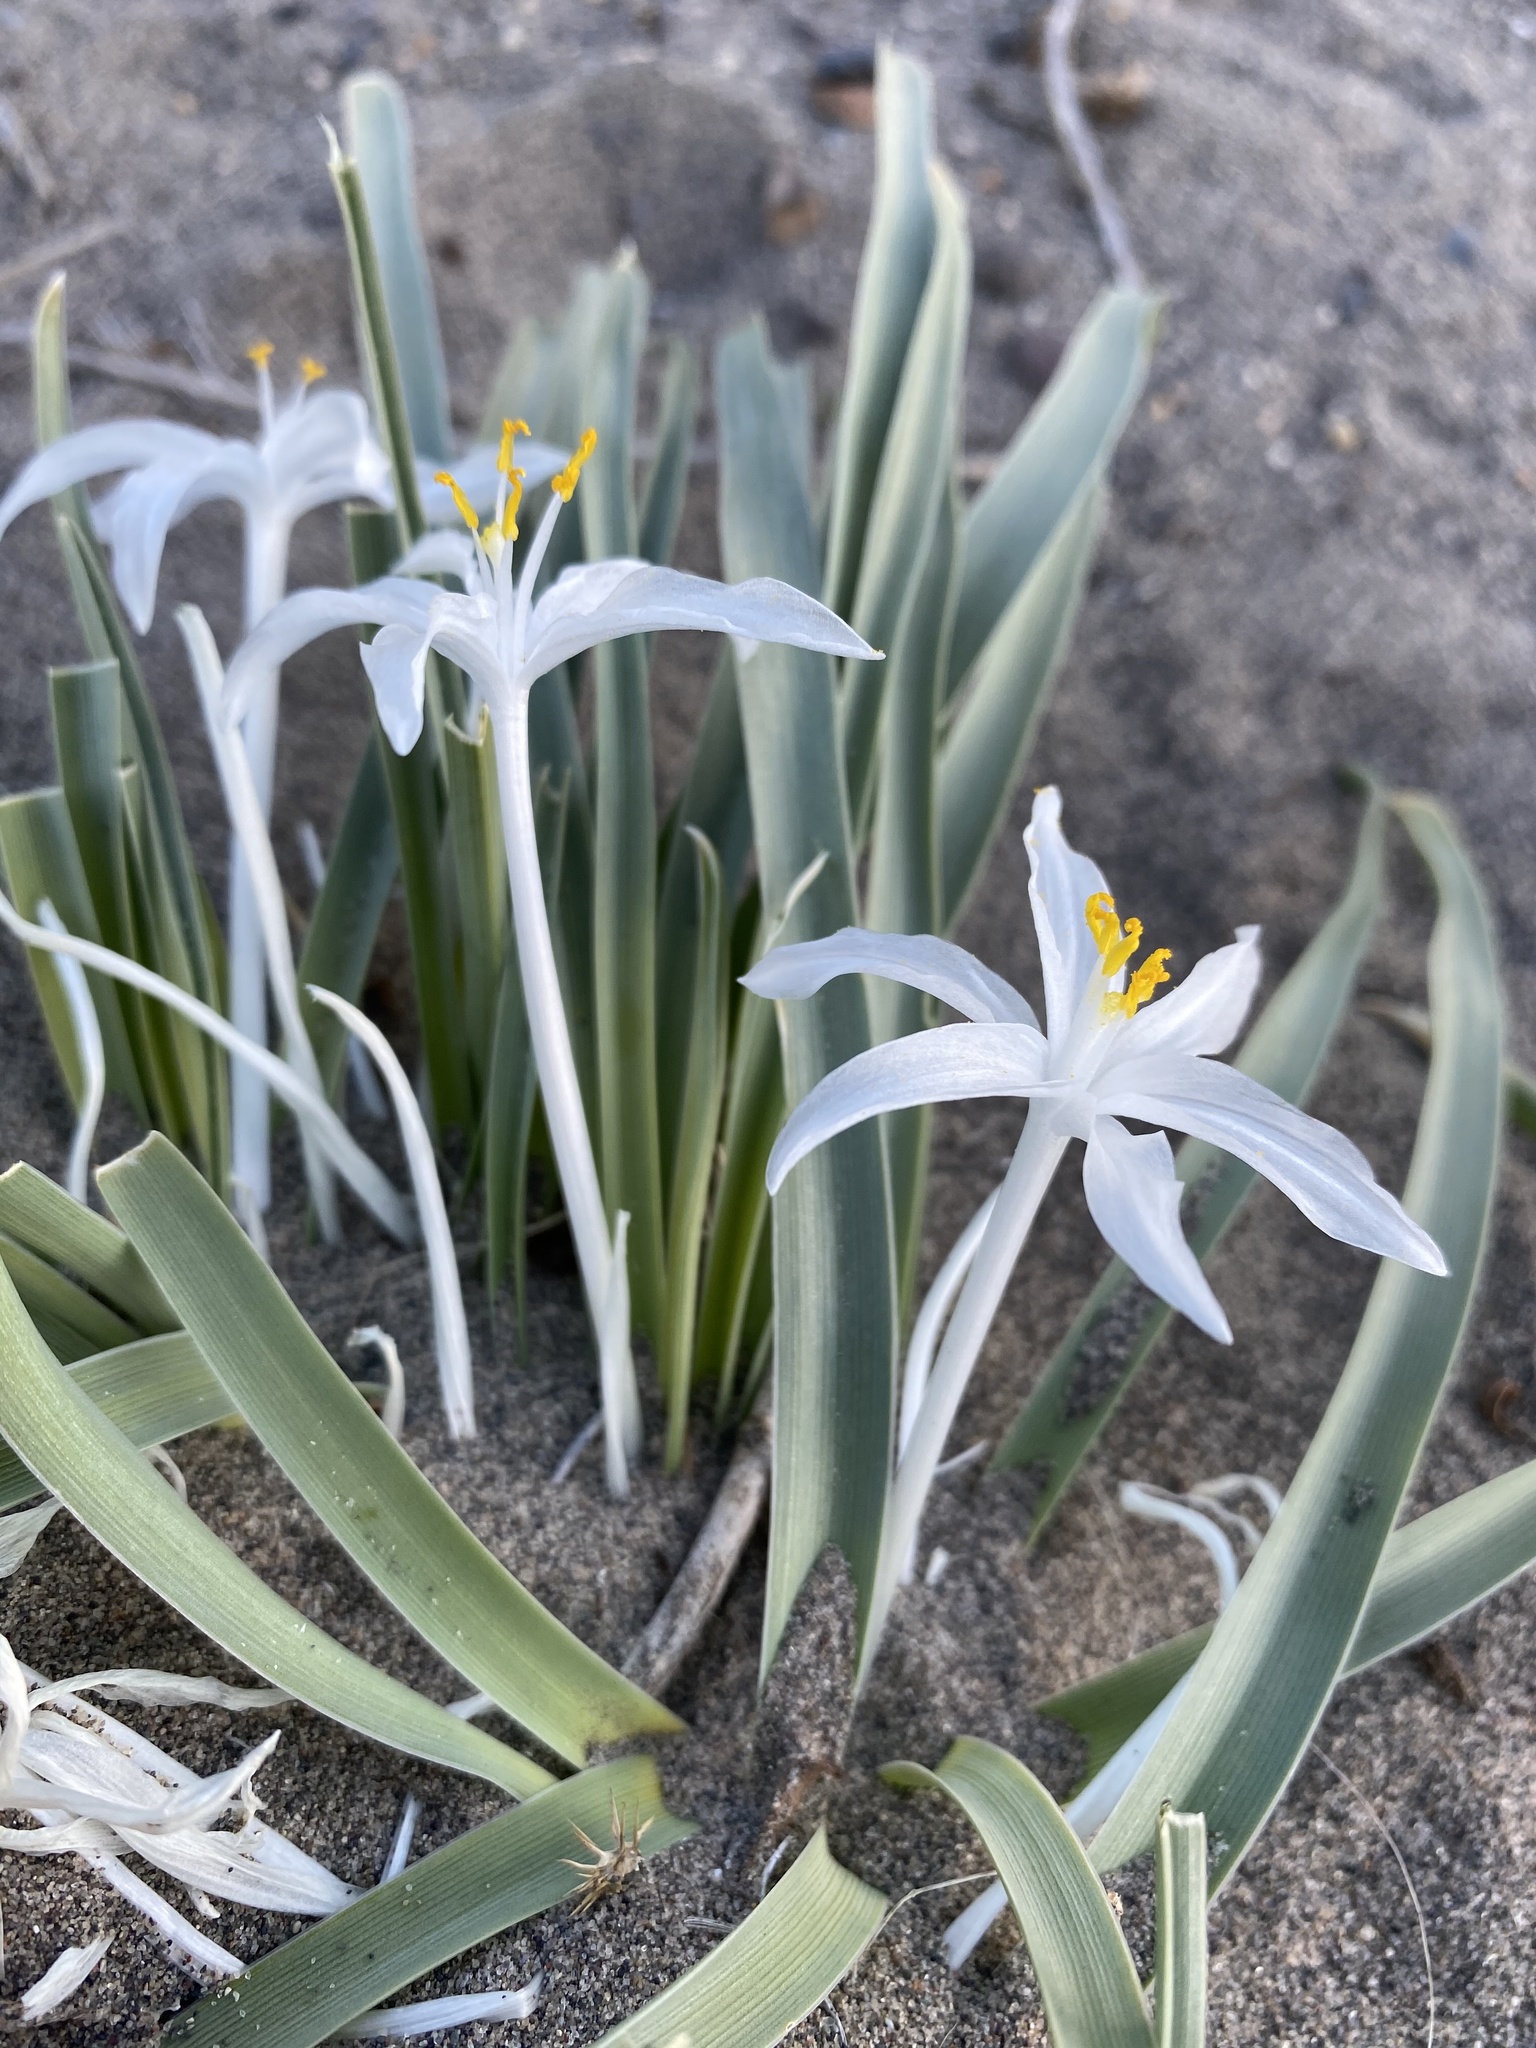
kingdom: Plantae
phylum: Tracheophyta
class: Liliopsida
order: Asparagales
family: Asparagaceae
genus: Leucocrinum
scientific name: Leucocrinum montanum
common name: Mountain-lily
